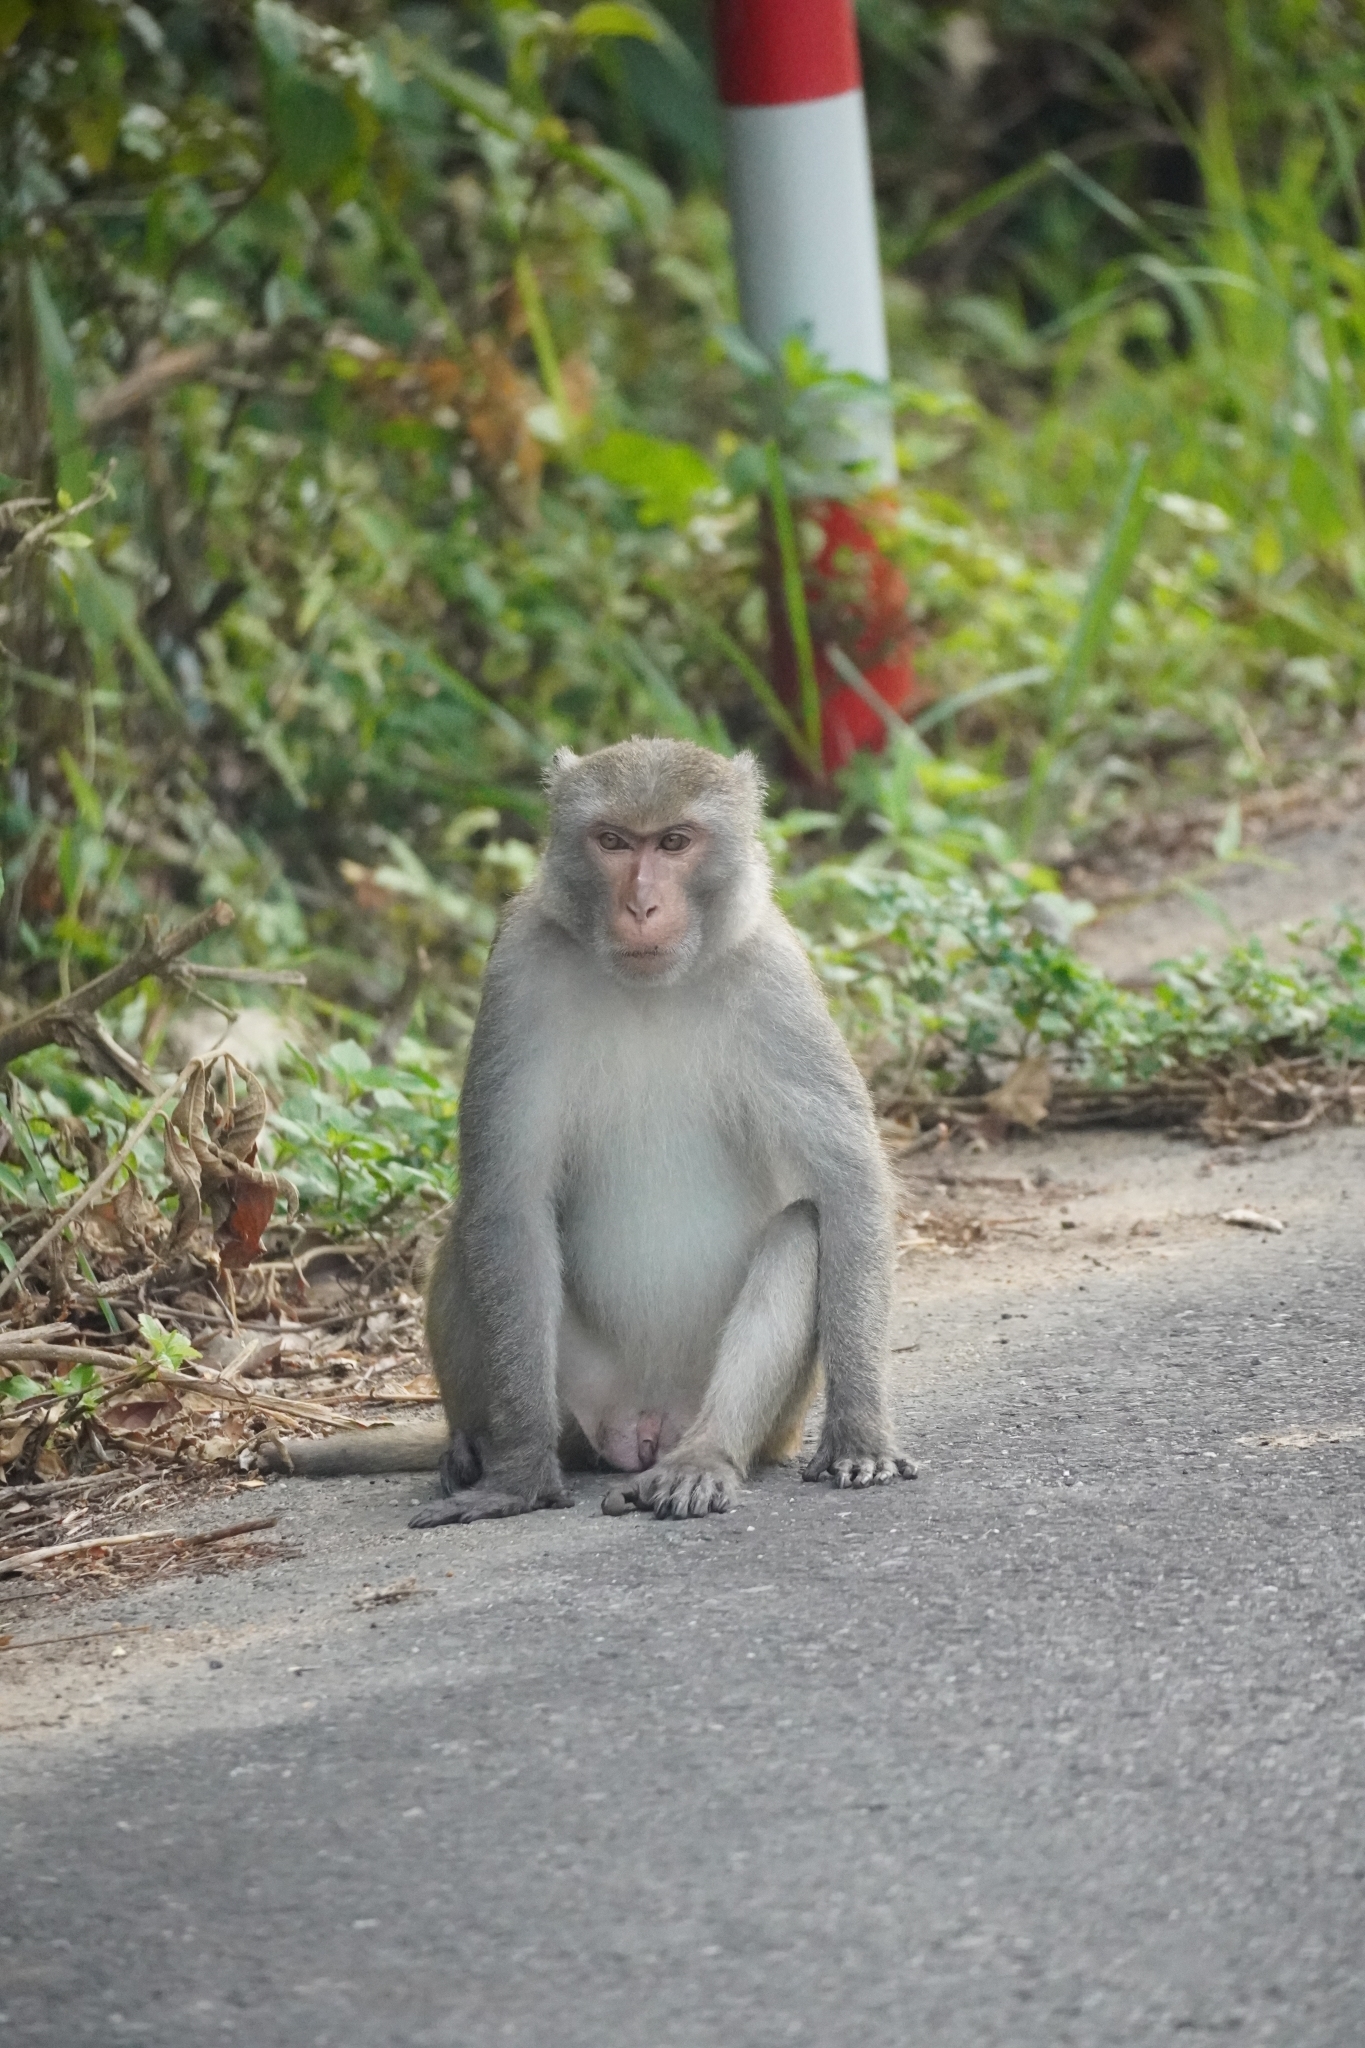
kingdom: Animalia
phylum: Chordata
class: Mammalia
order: Primates
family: Cercopithecidae
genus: Macaca
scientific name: Macaca fascicularis
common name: Crab-eating macaque
